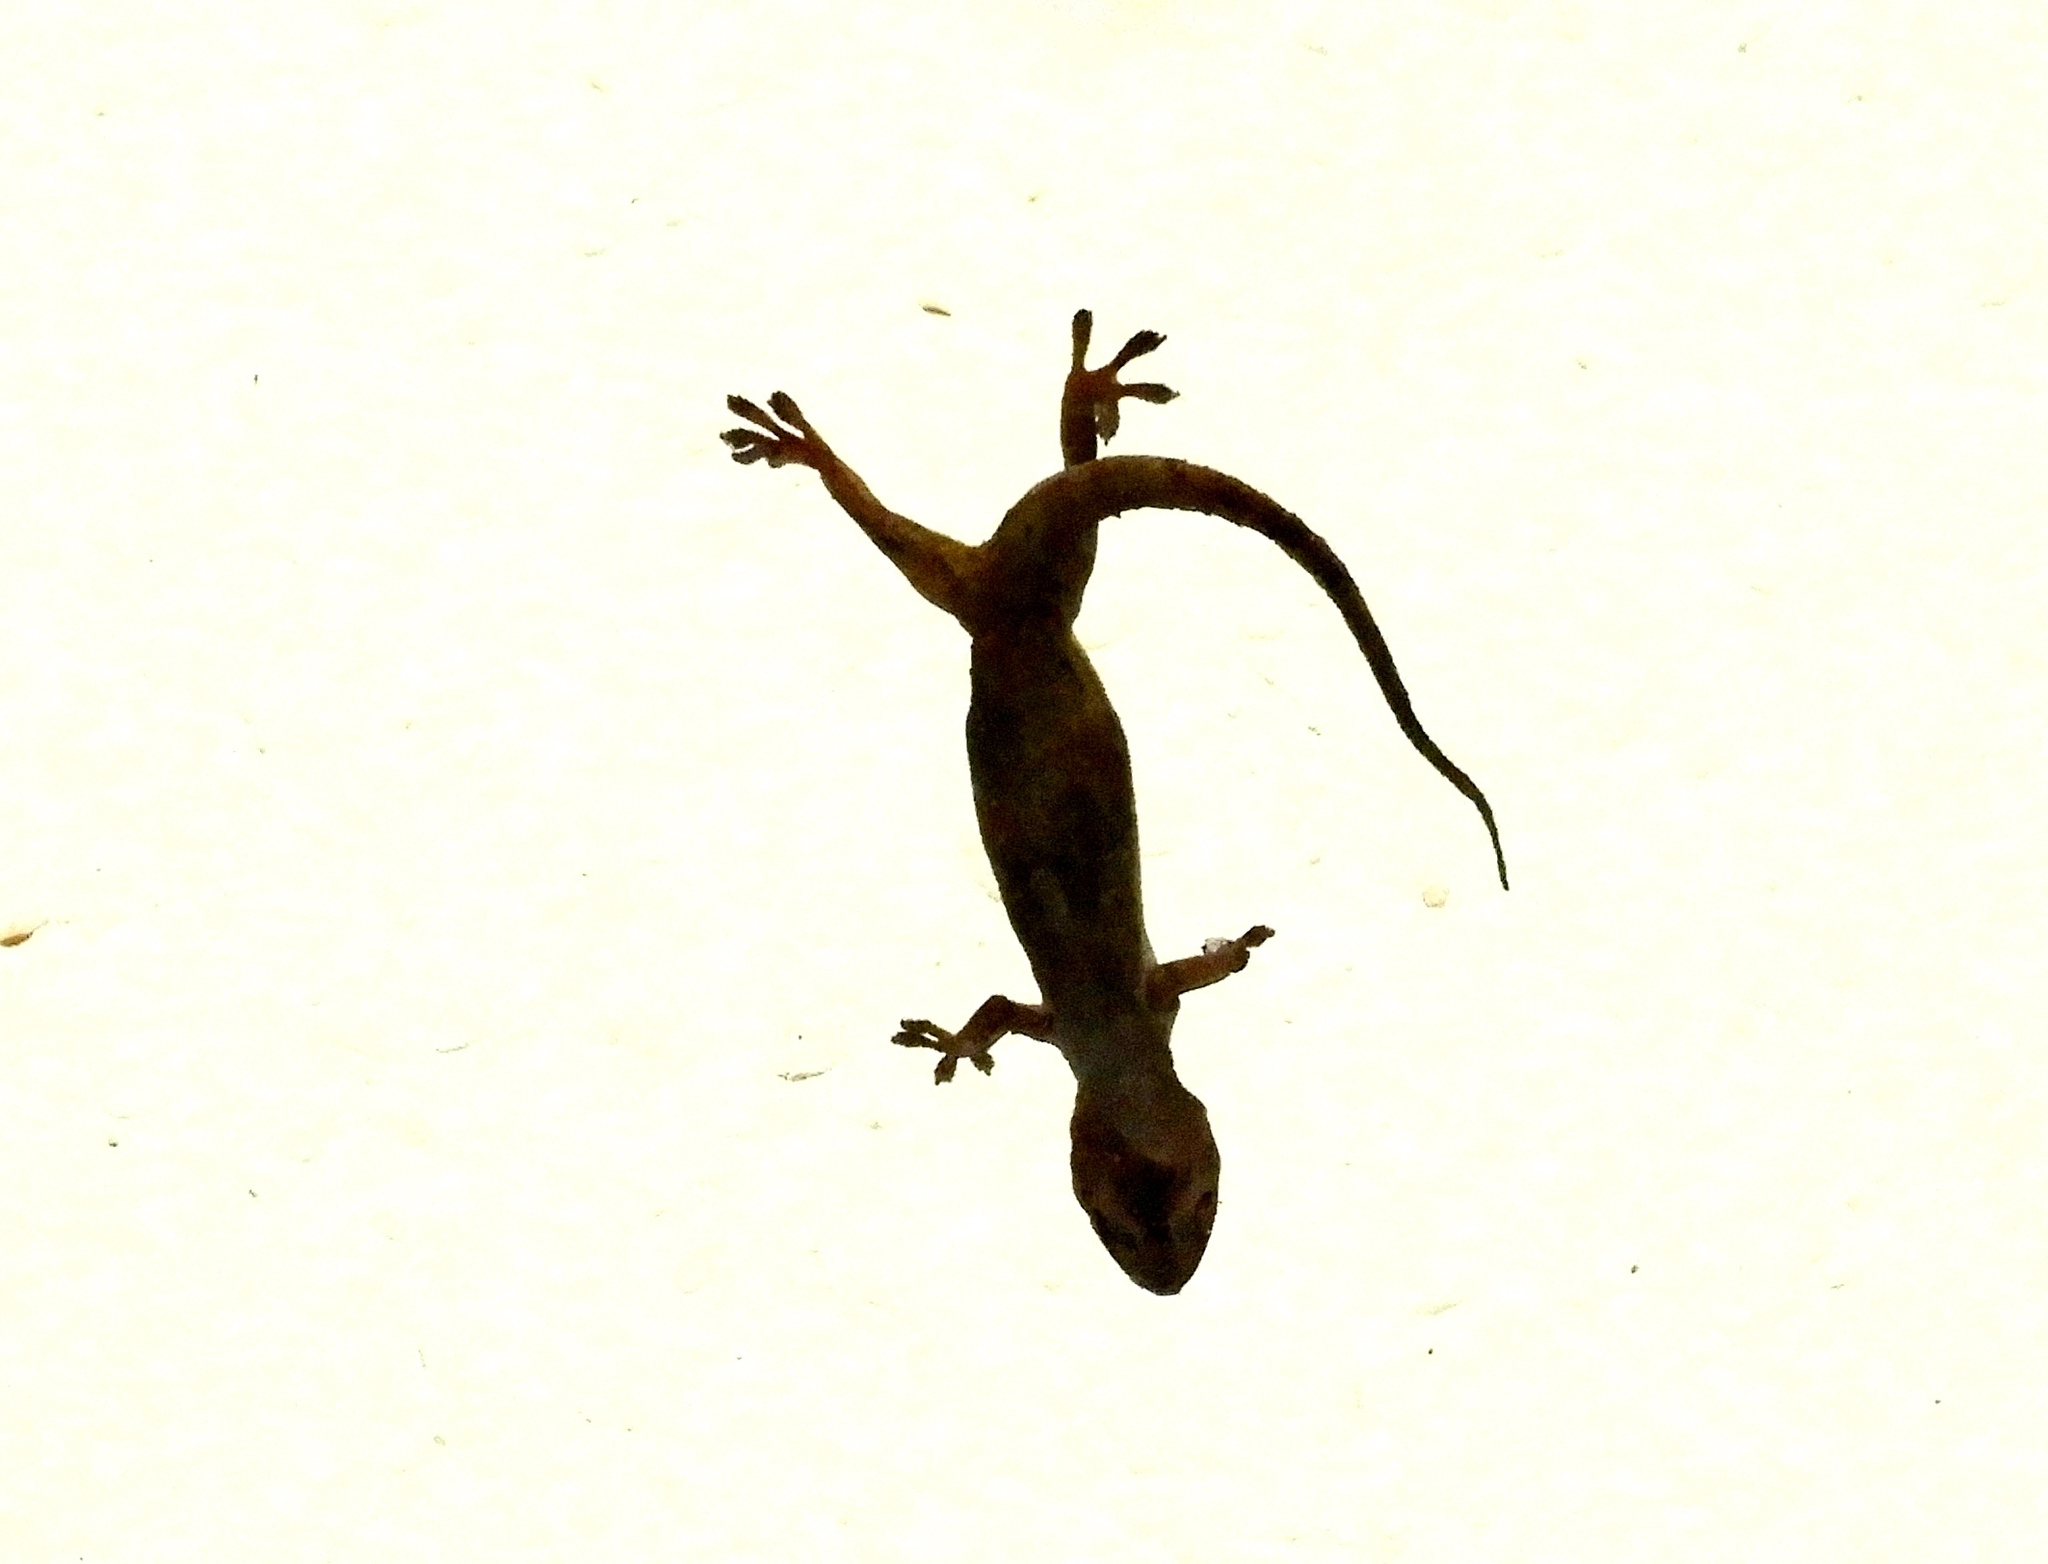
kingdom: Animalia
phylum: Chordata
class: Squamata
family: Gekkonidae
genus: Hemidactylus
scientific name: Hemidactylus frenatus
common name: Common house gecko
